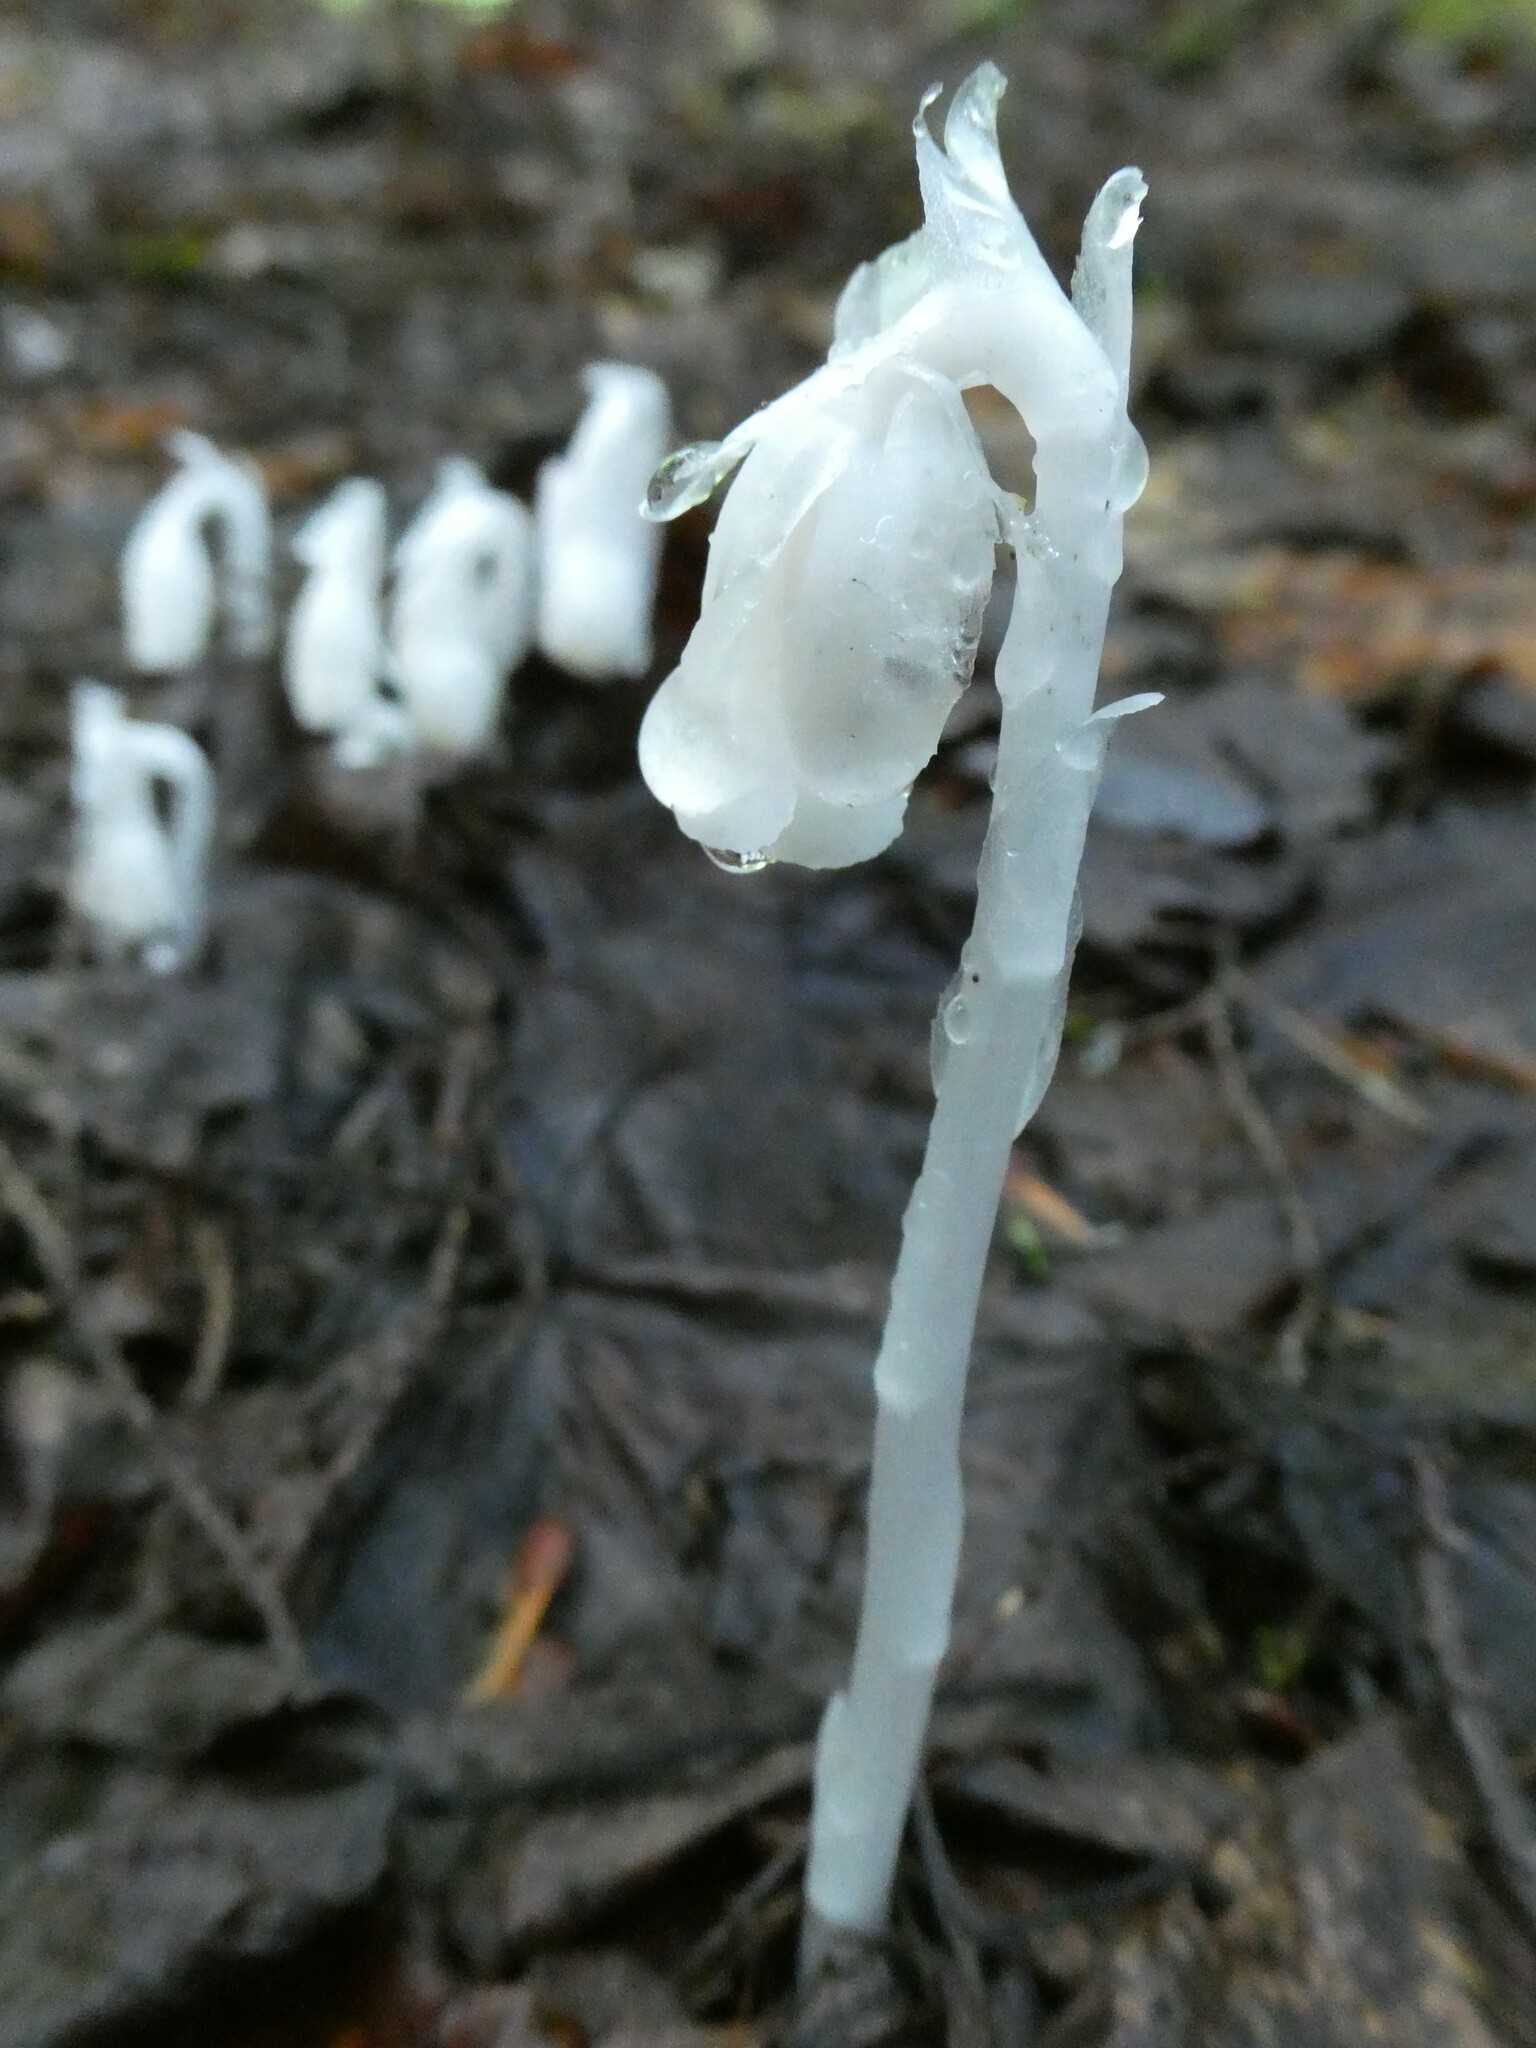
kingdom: Plantae
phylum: Tracheophyta
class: Magnoliopsida
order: Ericales
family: Ericaceae
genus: Monotropa
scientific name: Monotropa uniflora
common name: Convulsion root
